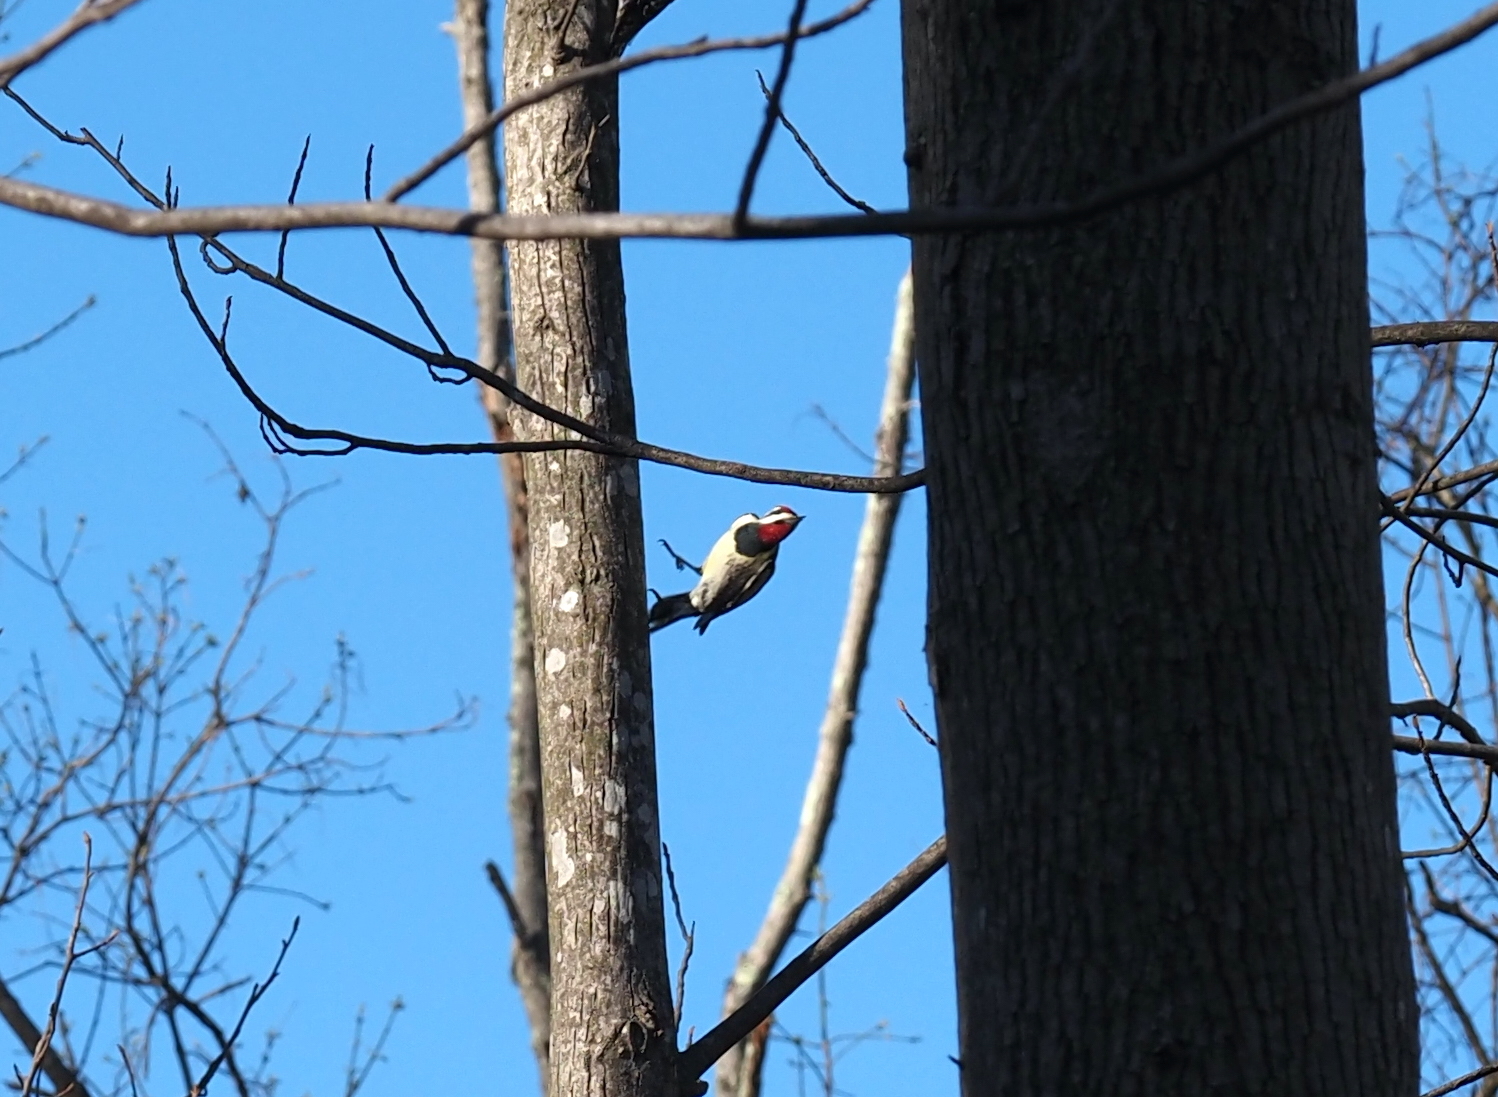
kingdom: Animalia
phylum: Chordata
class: Aves
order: Piciformes
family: Picidae
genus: Sphyrapicus
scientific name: Sphyrapicus varius
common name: Yellow-bellied sapsucker
